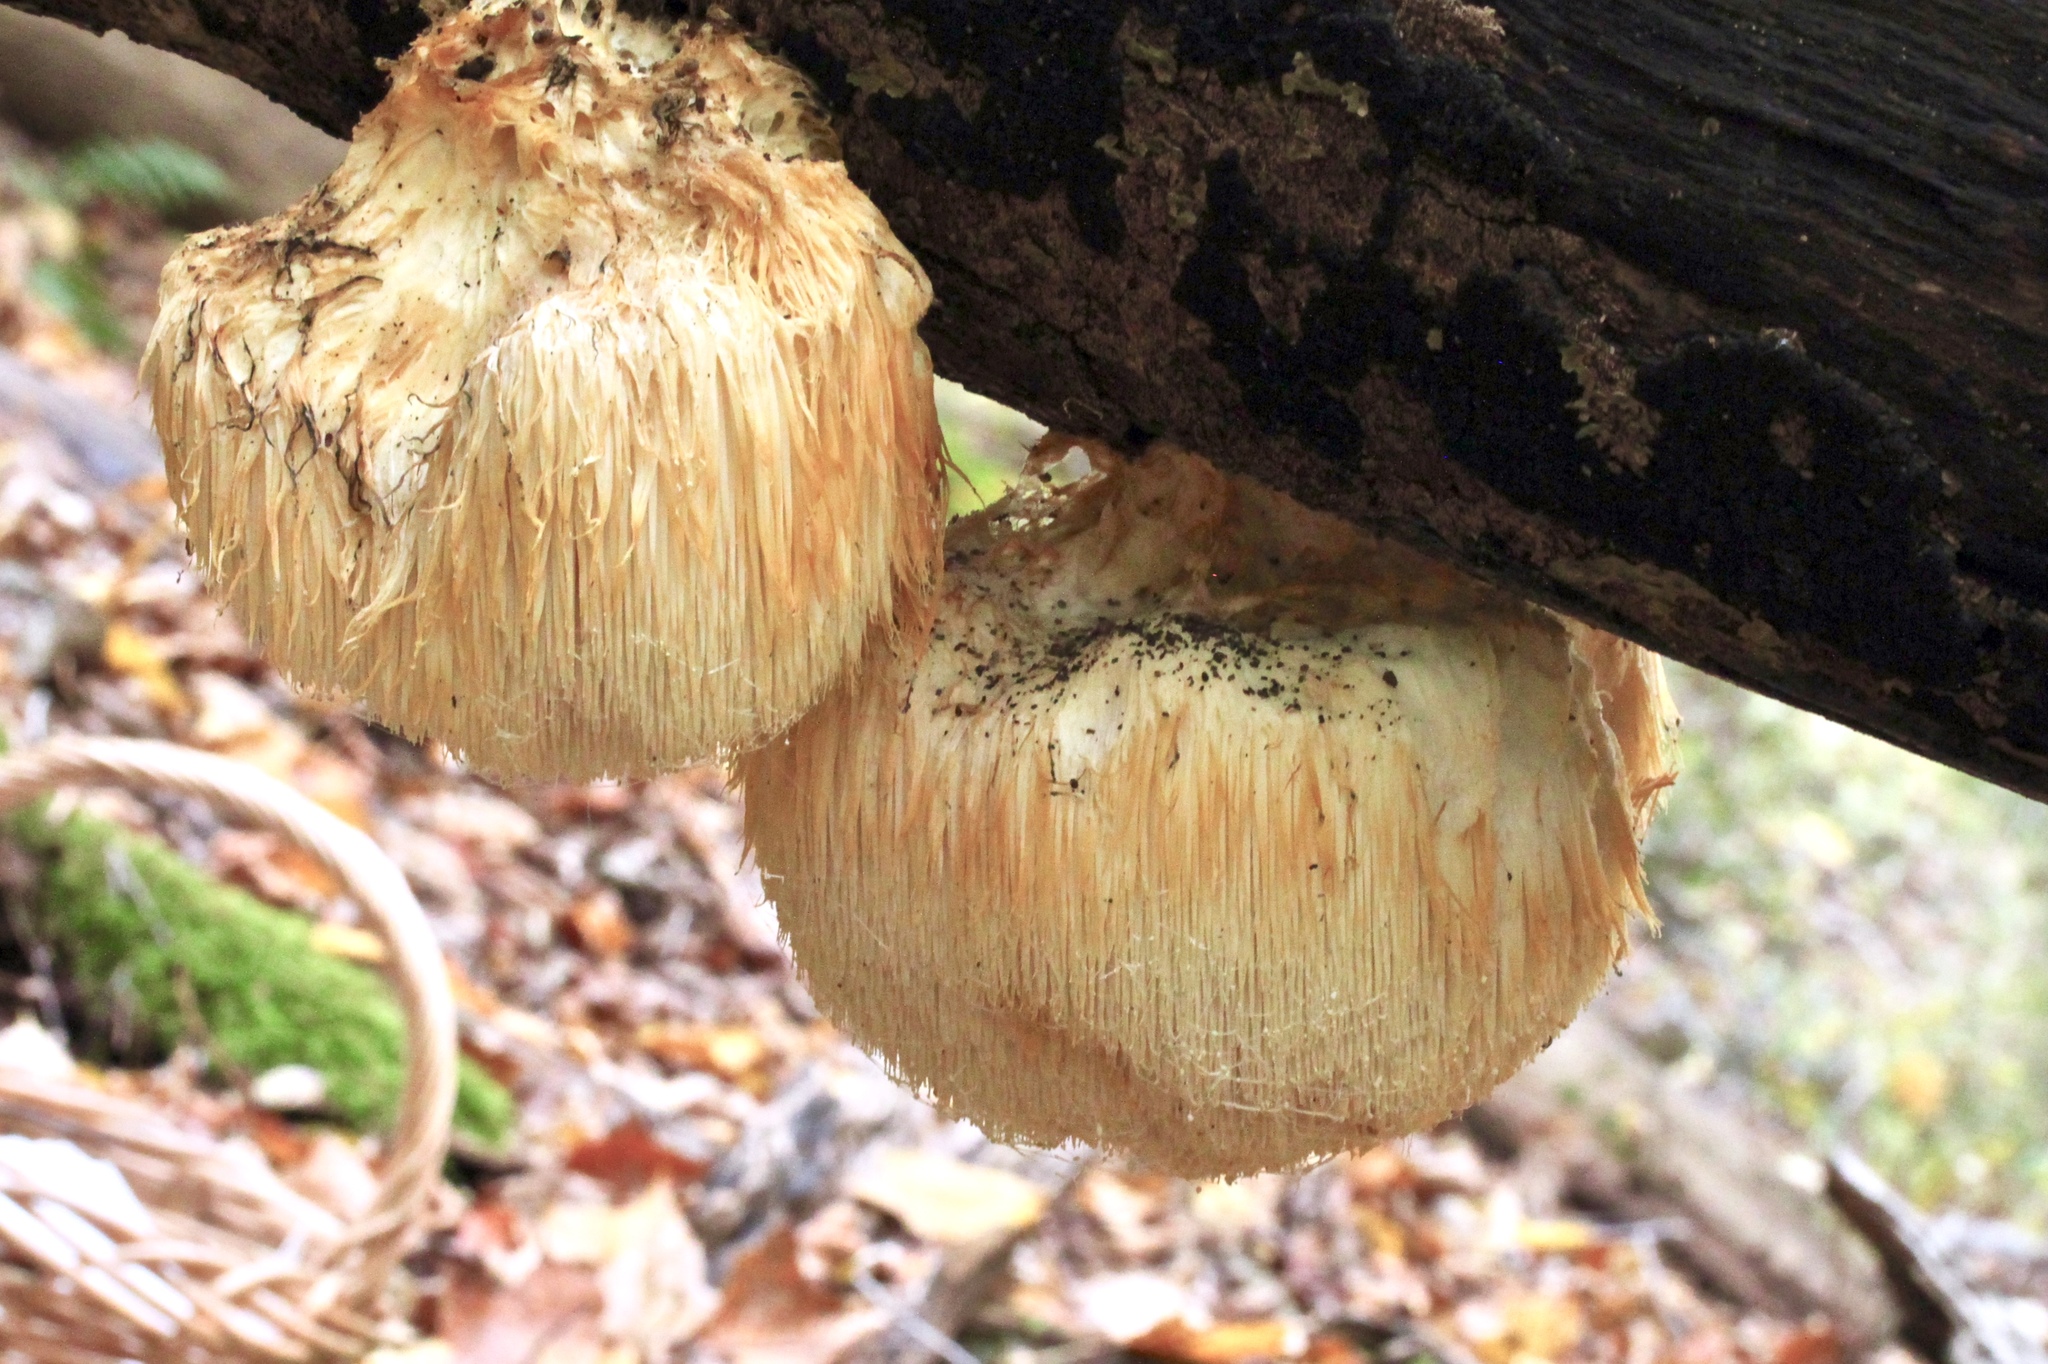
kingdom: Fungi
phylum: Basidiomycota
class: Agaricomycetes
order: Russulales
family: Hericiaceae
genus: Hericium
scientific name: Hericium erinaceus
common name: Bearded tooth
